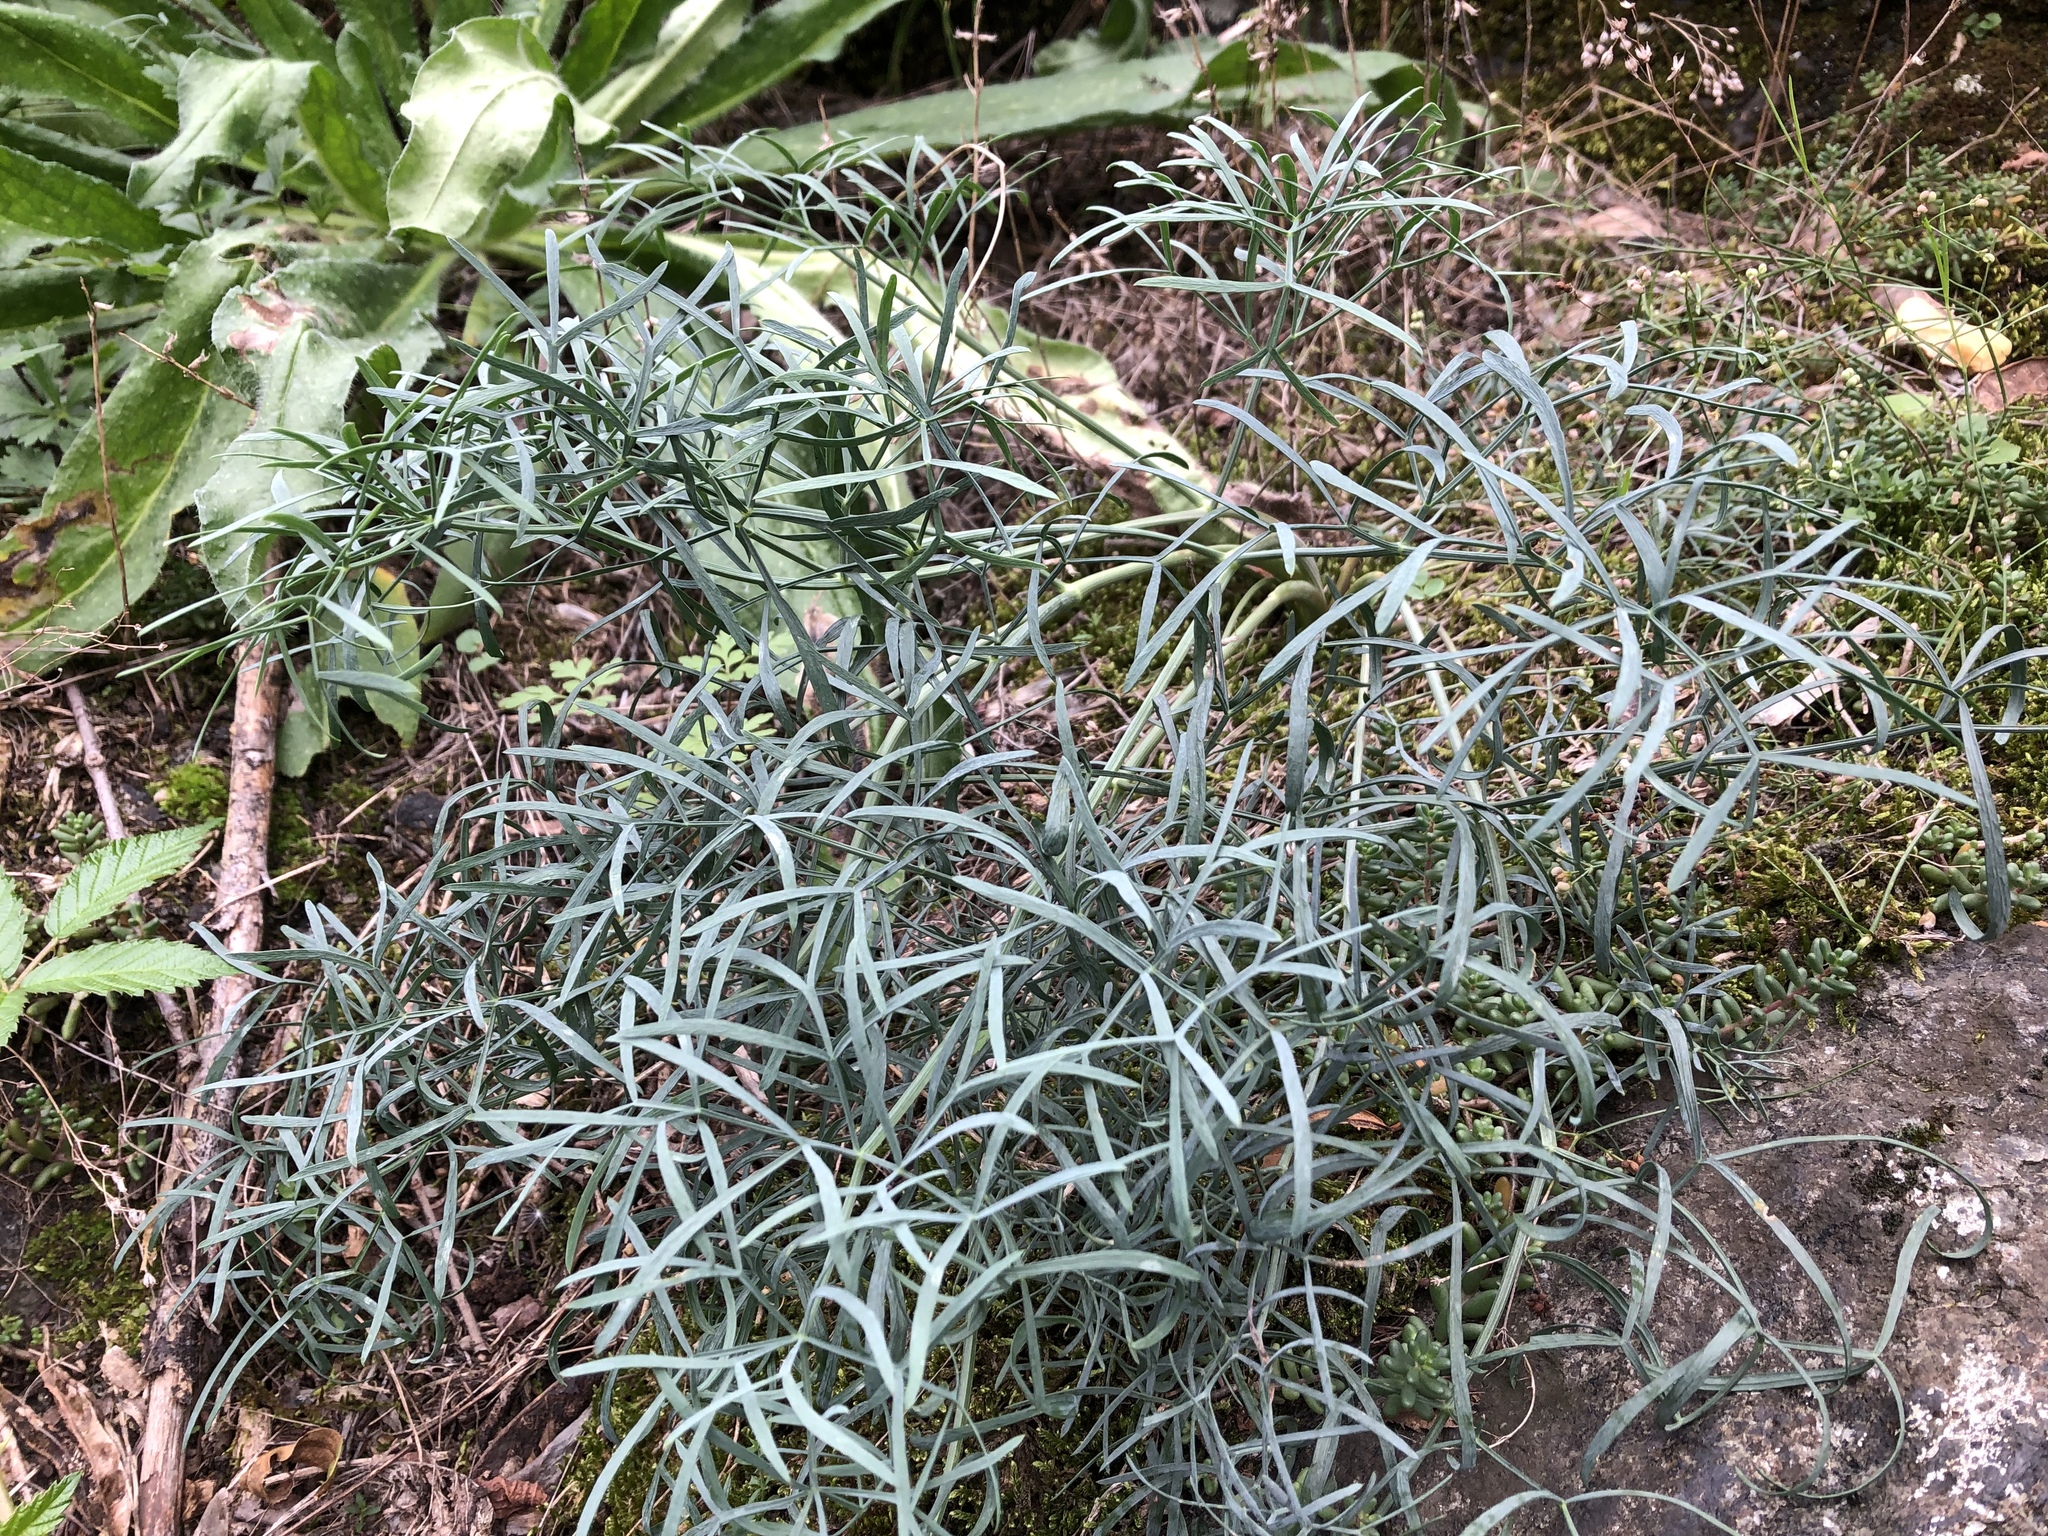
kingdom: Plantae
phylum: Tracheophyta
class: Magnoliopsida
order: Apiales
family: Apiaceae
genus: Seseli
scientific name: Seseli osseum
